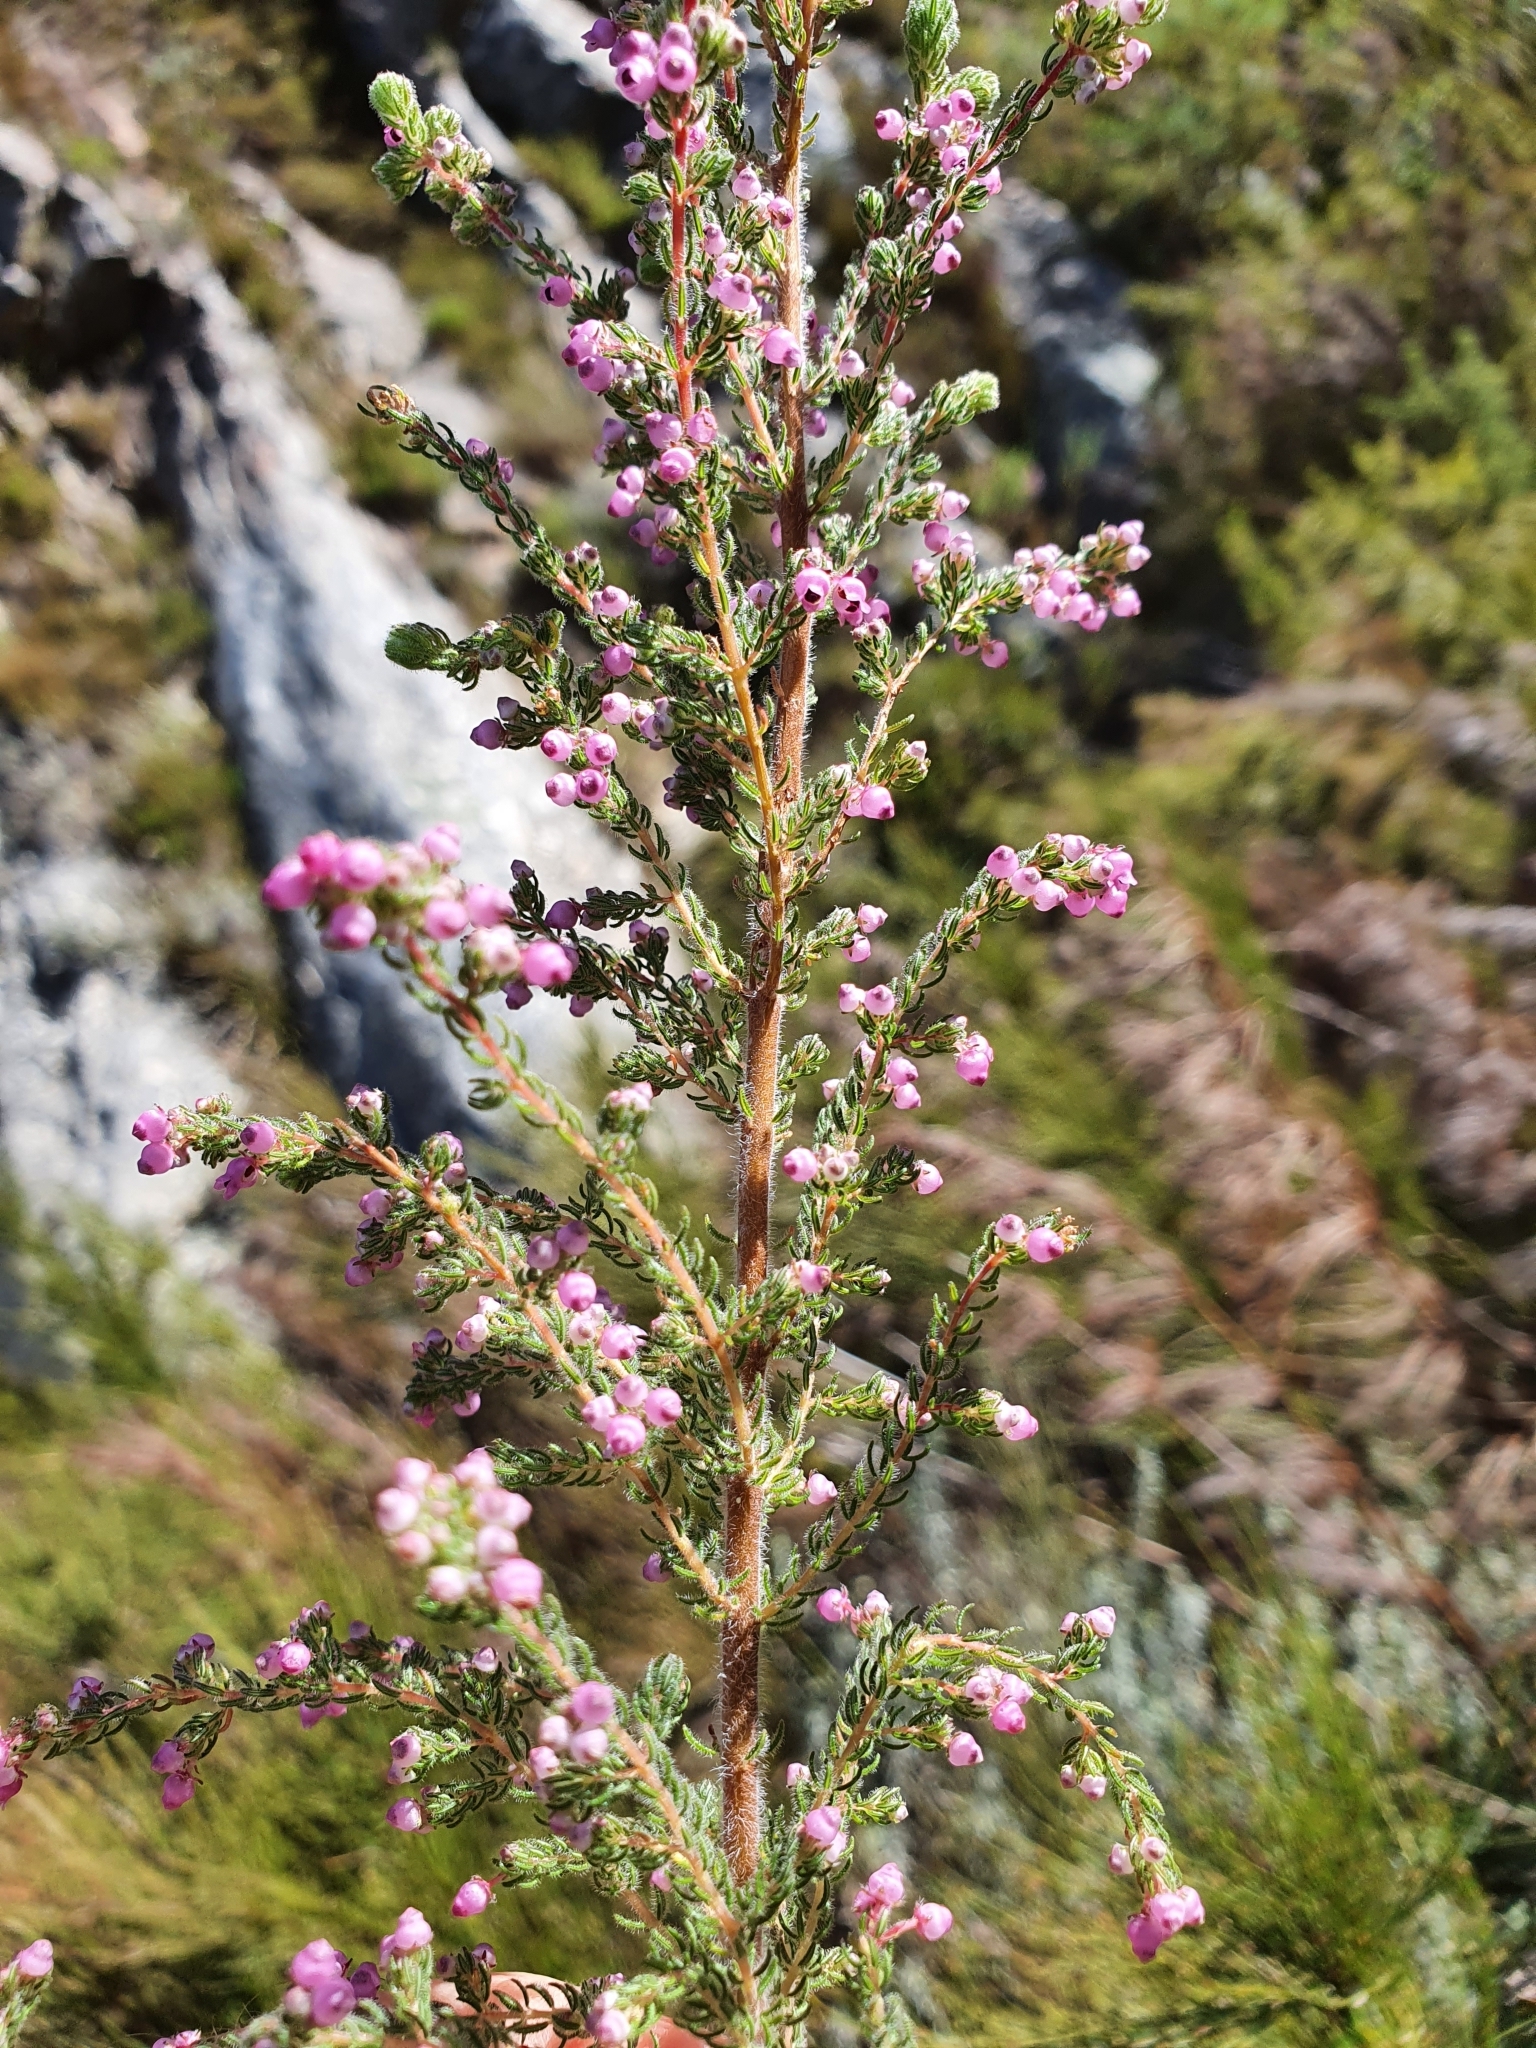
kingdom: Plantae
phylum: Tracheophyta
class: Magnoliopsida
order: Ericales
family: Ericaceae
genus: Erica
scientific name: Erica bergiana
